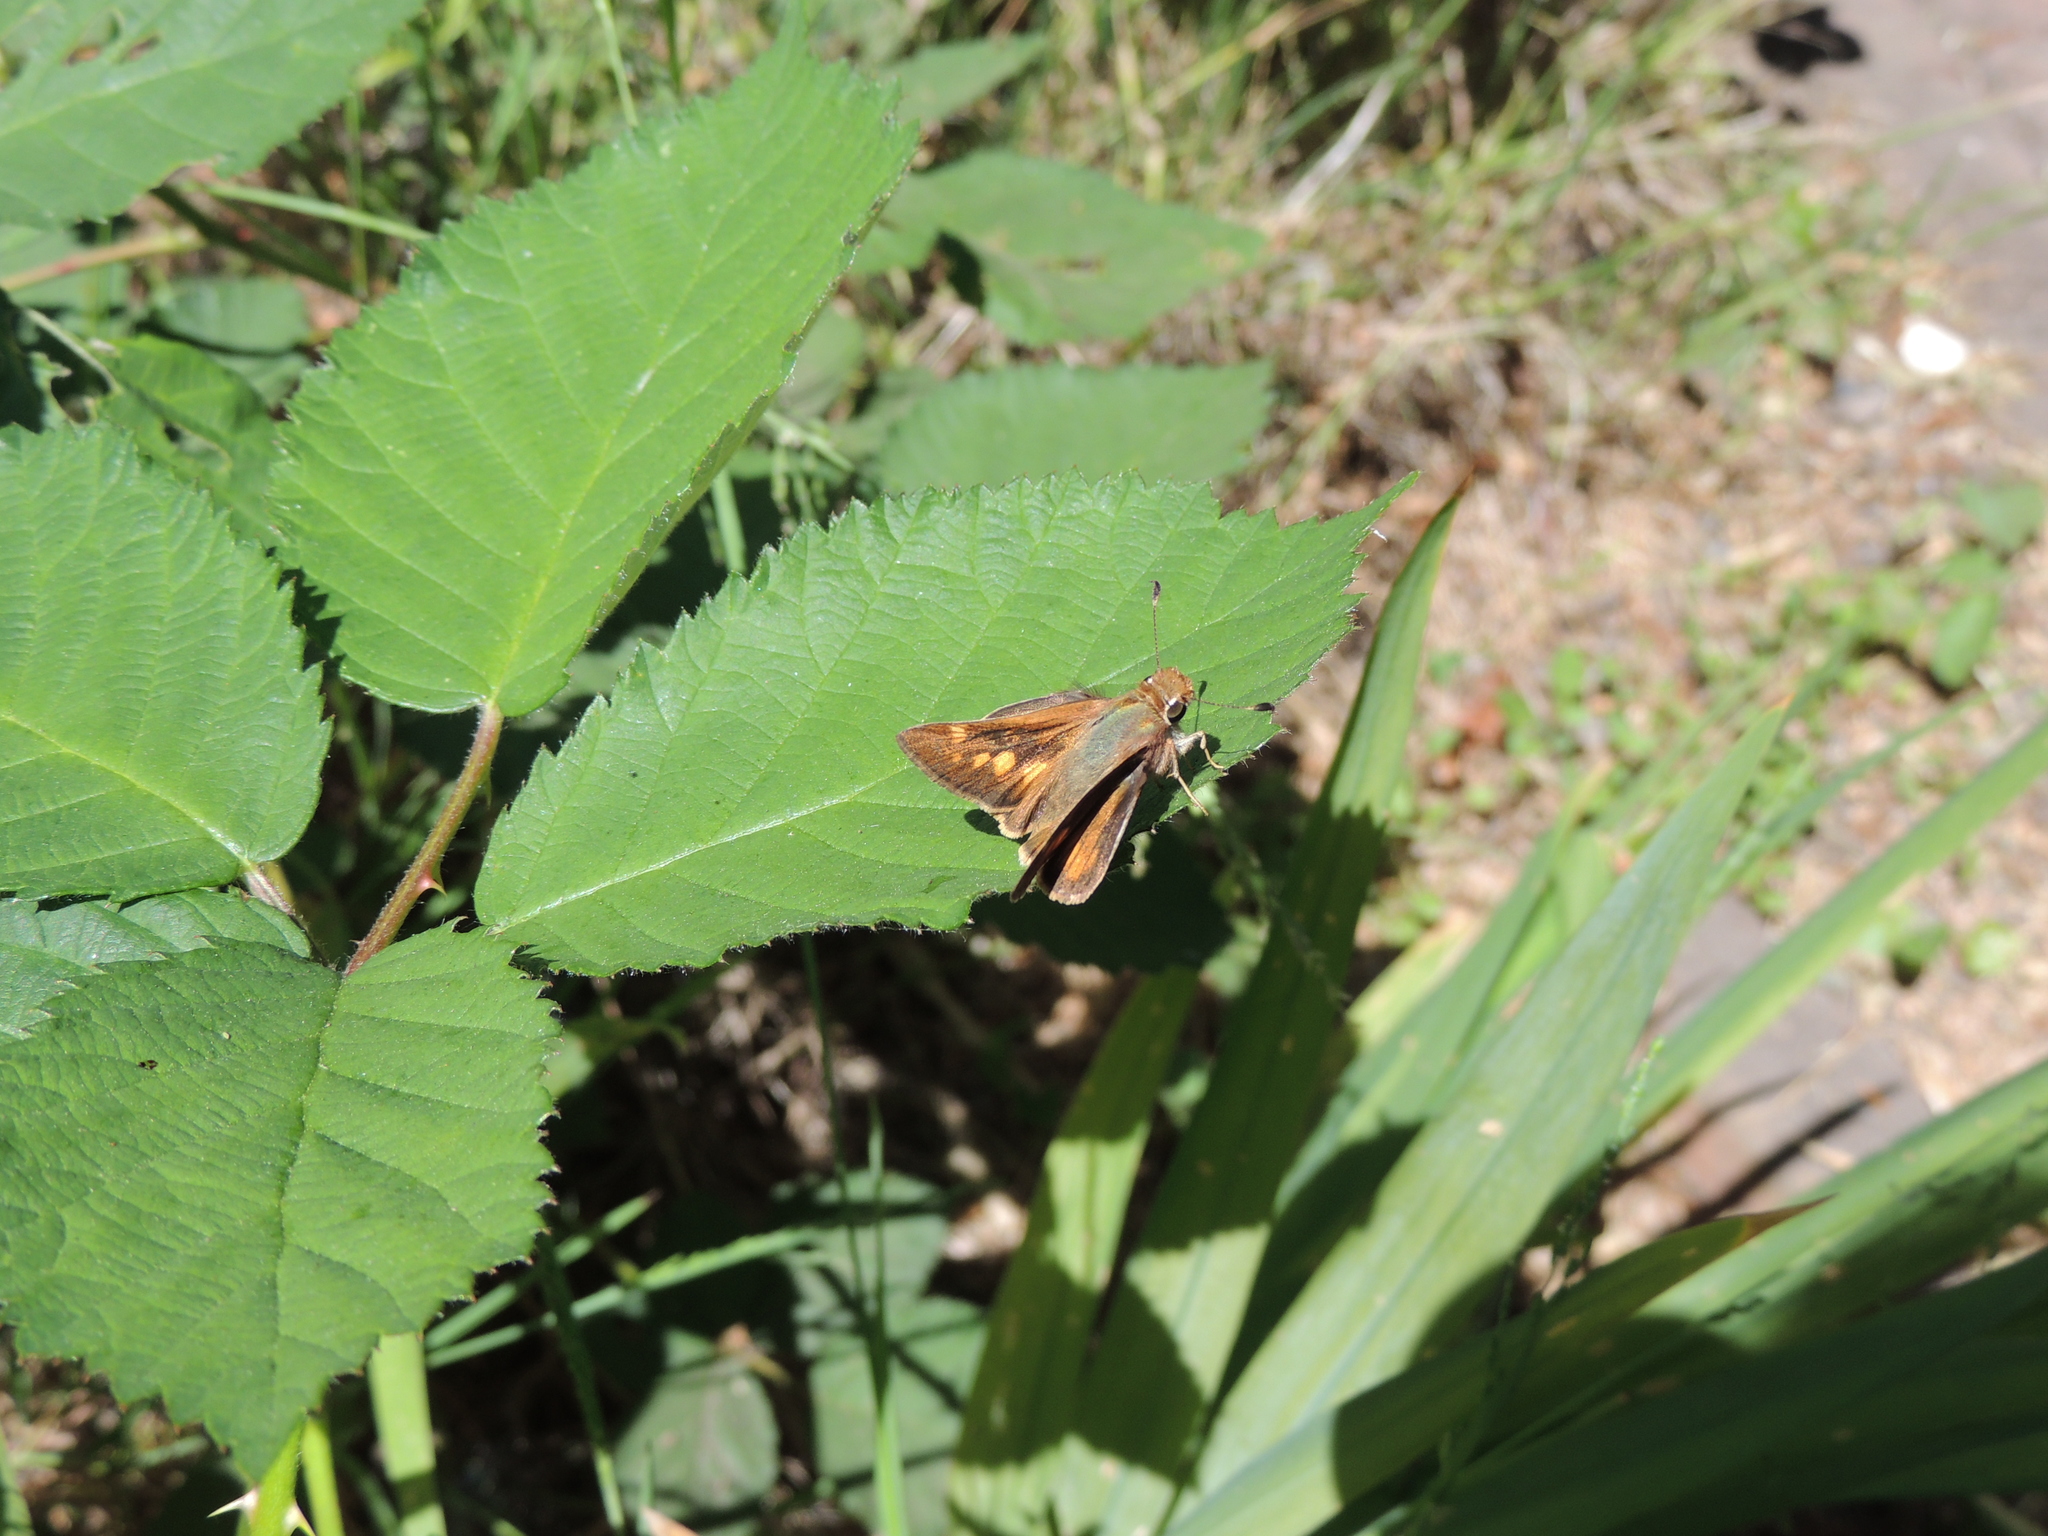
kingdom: Animalia
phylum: Arthropoda
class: Insecta
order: Lepidoptera
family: Hesperiidae
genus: Lon
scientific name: Lon melane
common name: Umber skipper
